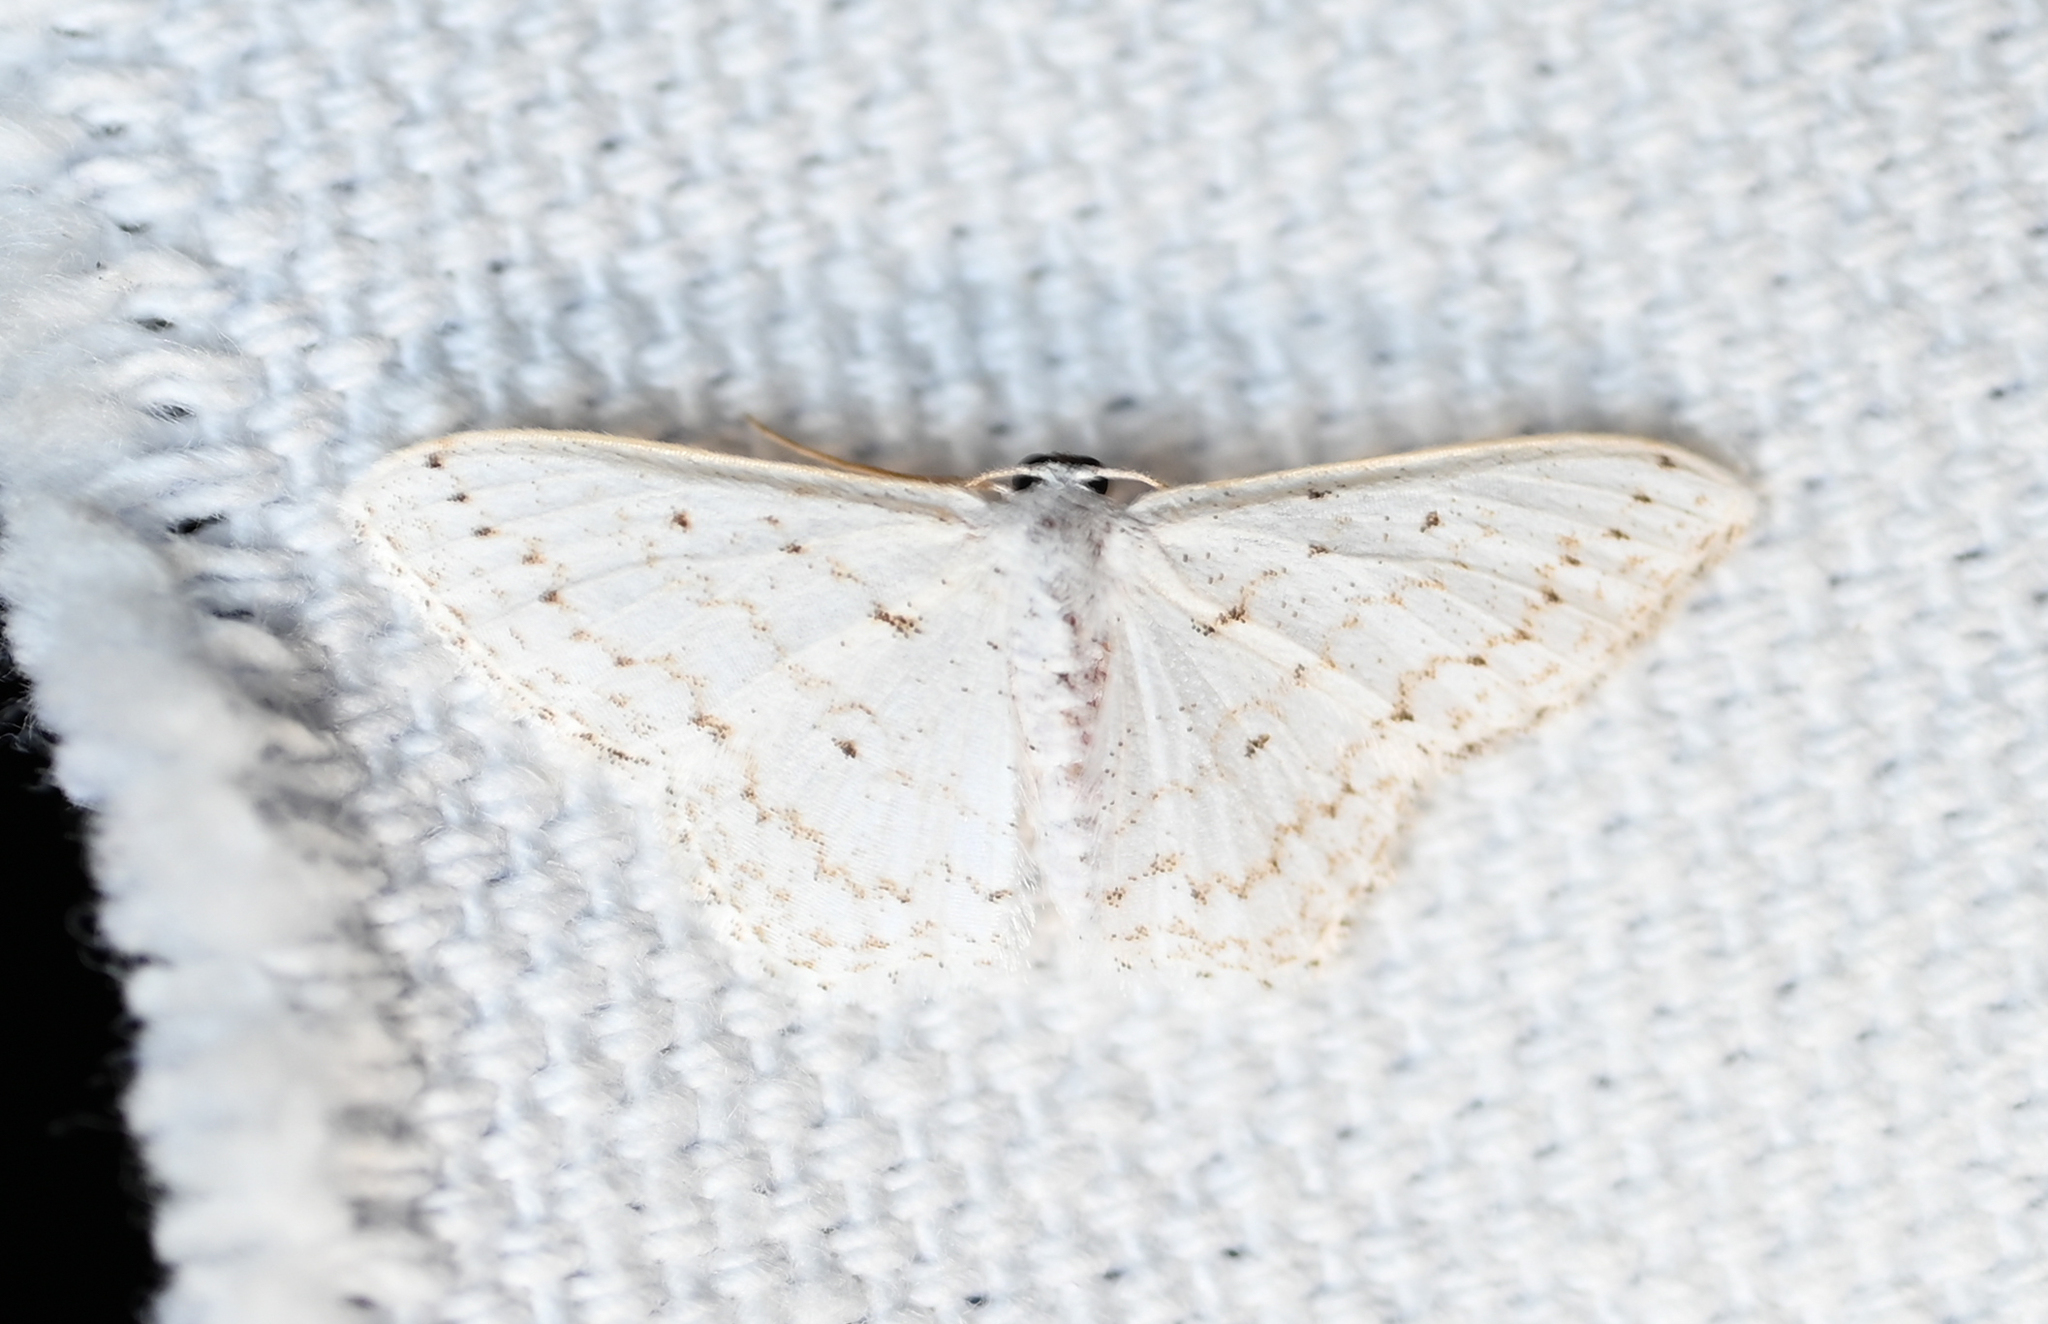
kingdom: Animalia
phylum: Arthropoda
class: Insecta
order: Lepidoptera
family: Geometridae
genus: Idaea
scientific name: Idaea tacturata
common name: Dot-lined wave
